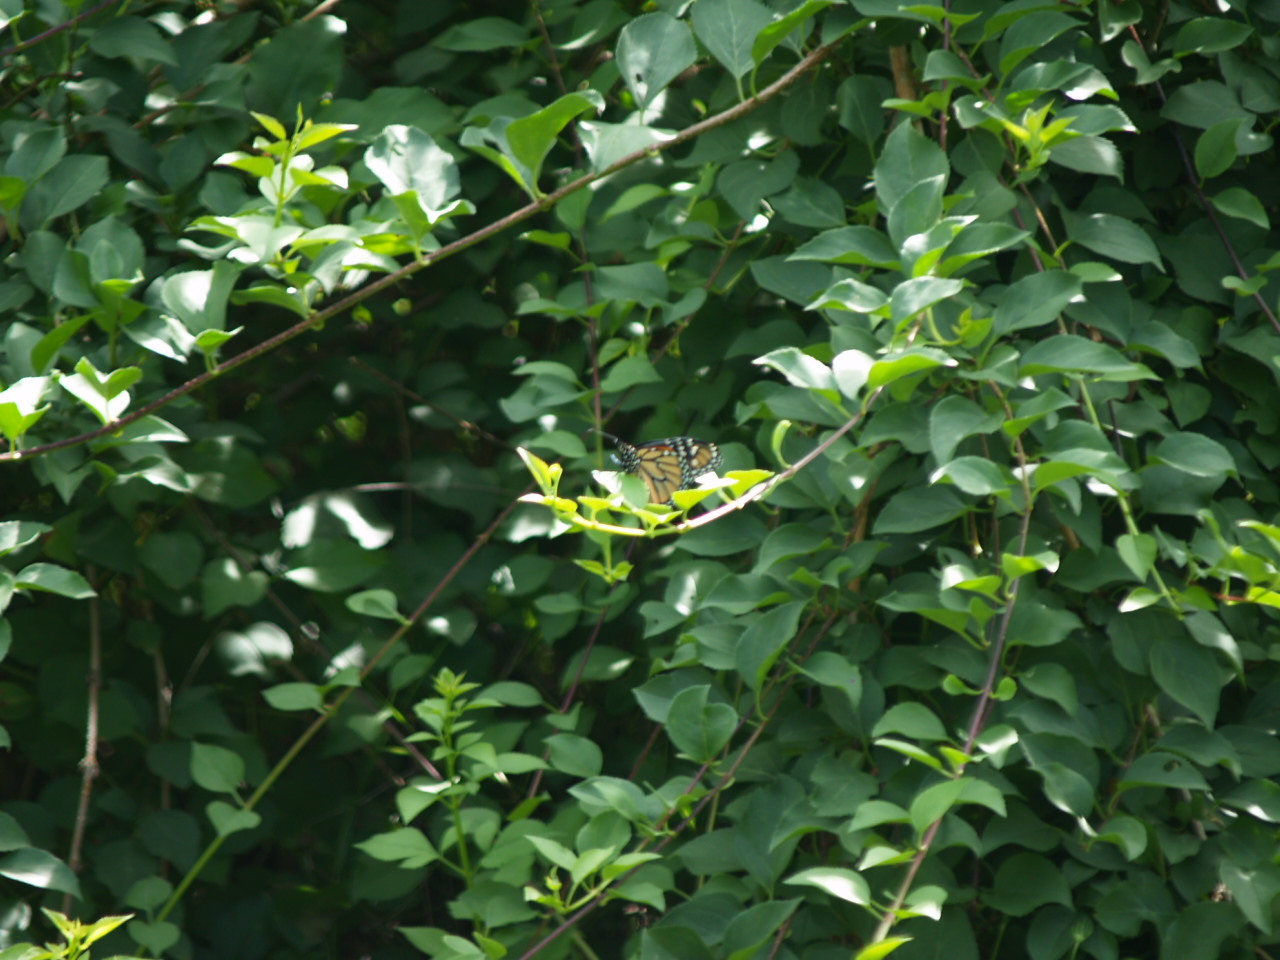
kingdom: Animalia
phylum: Arthropoda
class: Insecta
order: Lepidoptera
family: Nymphalidae
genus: Danaus
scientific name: Danaus plexippus
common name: Monarch
